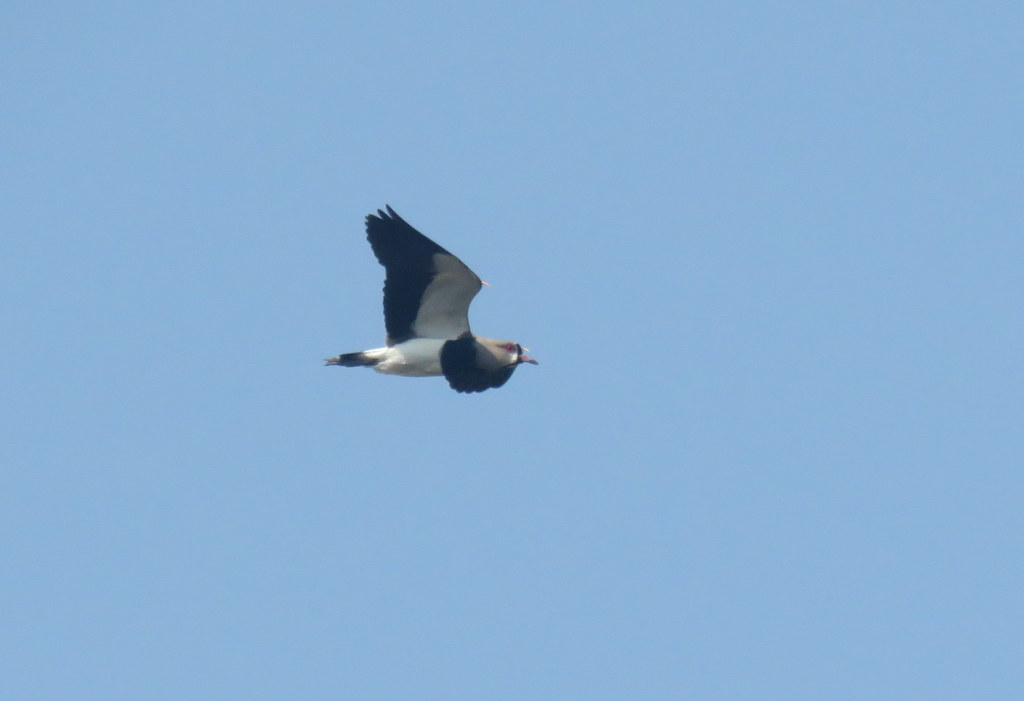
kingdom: Animalia
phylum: Chordata
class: Aves
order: Charadriiformes
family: Charadriidae
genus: Vanellus
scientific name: Vanellus chilensis
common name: Southern lapwing
